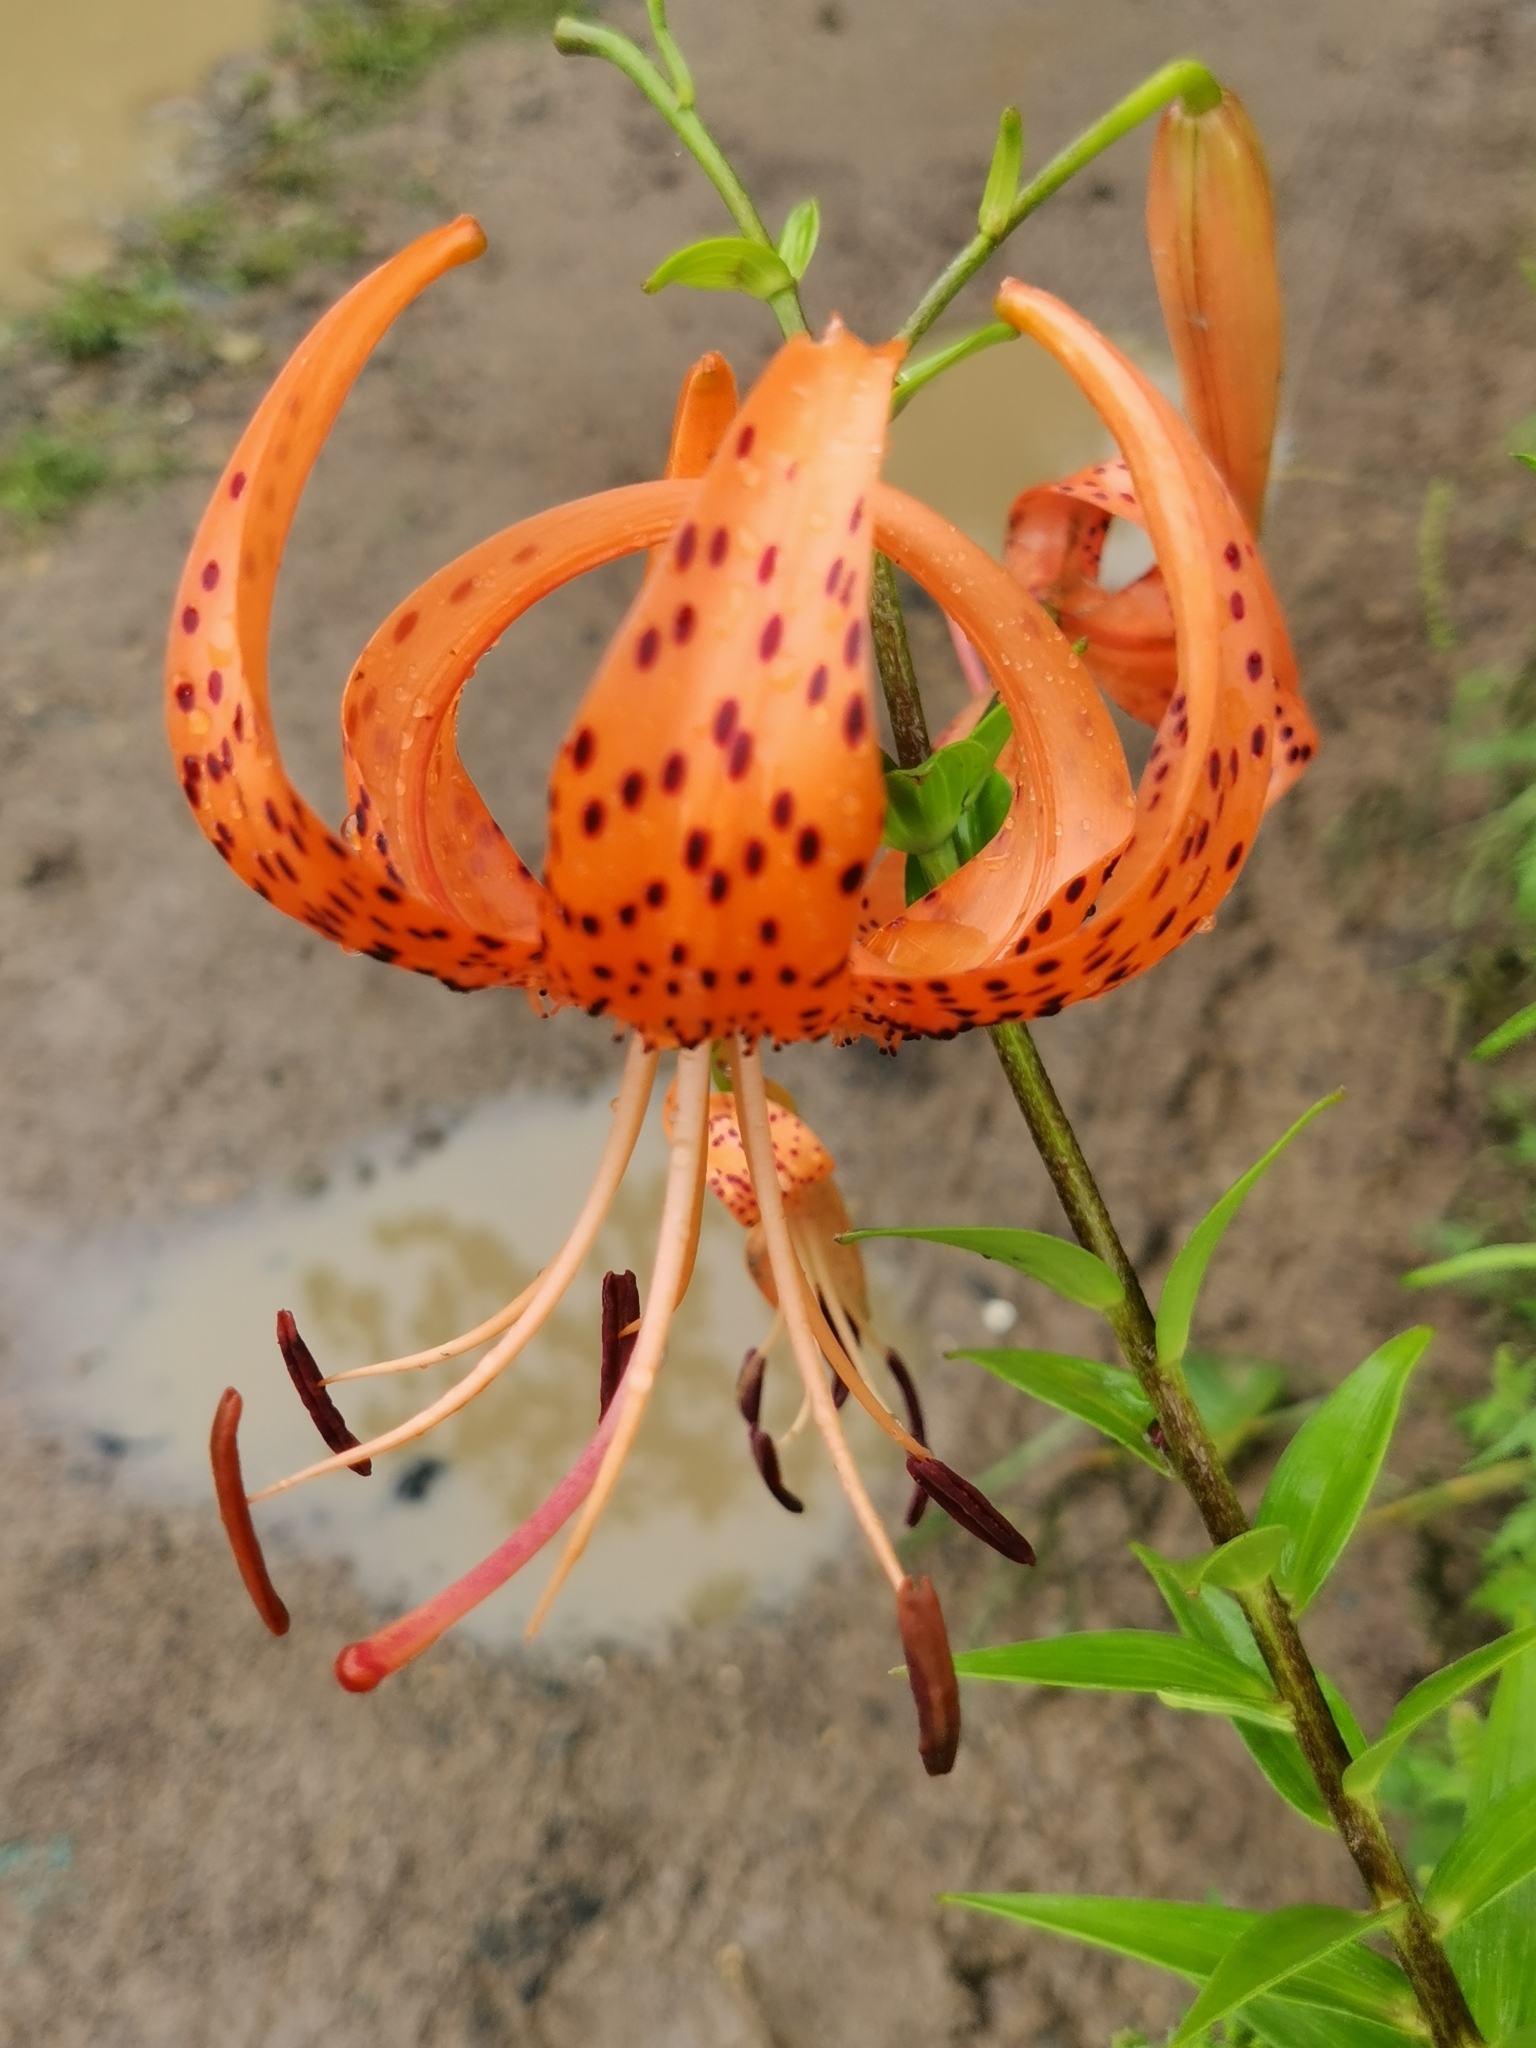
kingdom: Plantae
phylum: Tracheophyta
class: Liliopsida
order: Liliales
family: Liliaceae
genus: Lilium
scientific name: Lilium lancifolium
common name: Tiger lily
